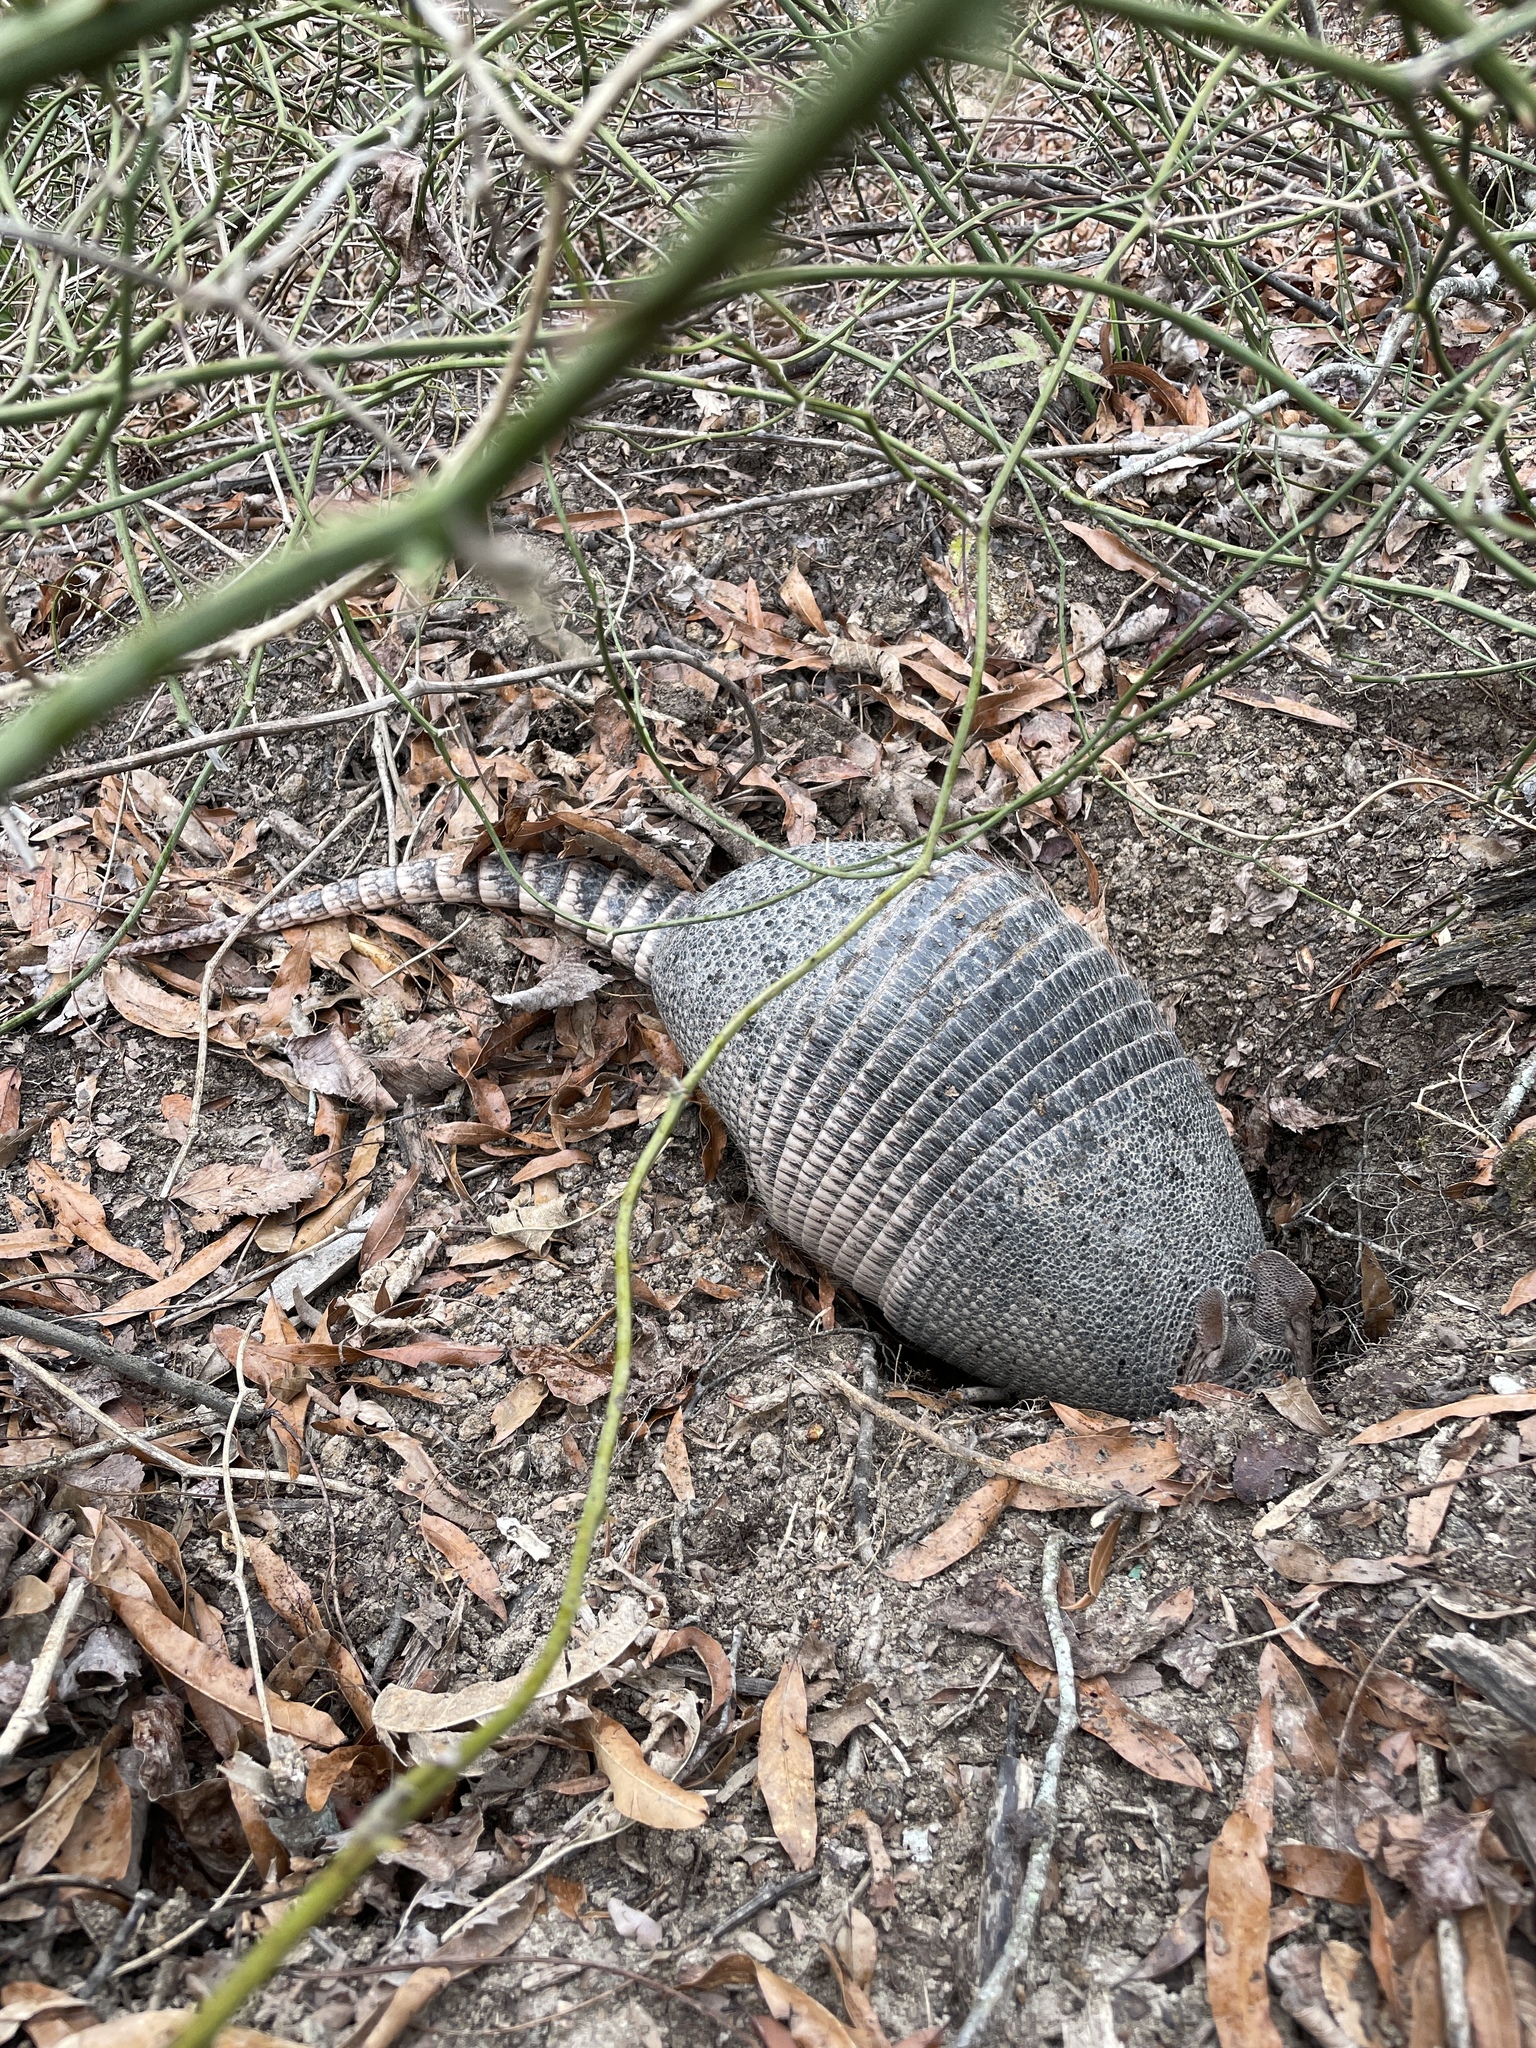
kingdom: Animalia
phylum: Chordata
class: Mammalia
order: Cingulata
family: Dasypodidae
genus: Dasypus
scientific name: Dasypus novemcinctus
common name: Nine-banded armadillo
